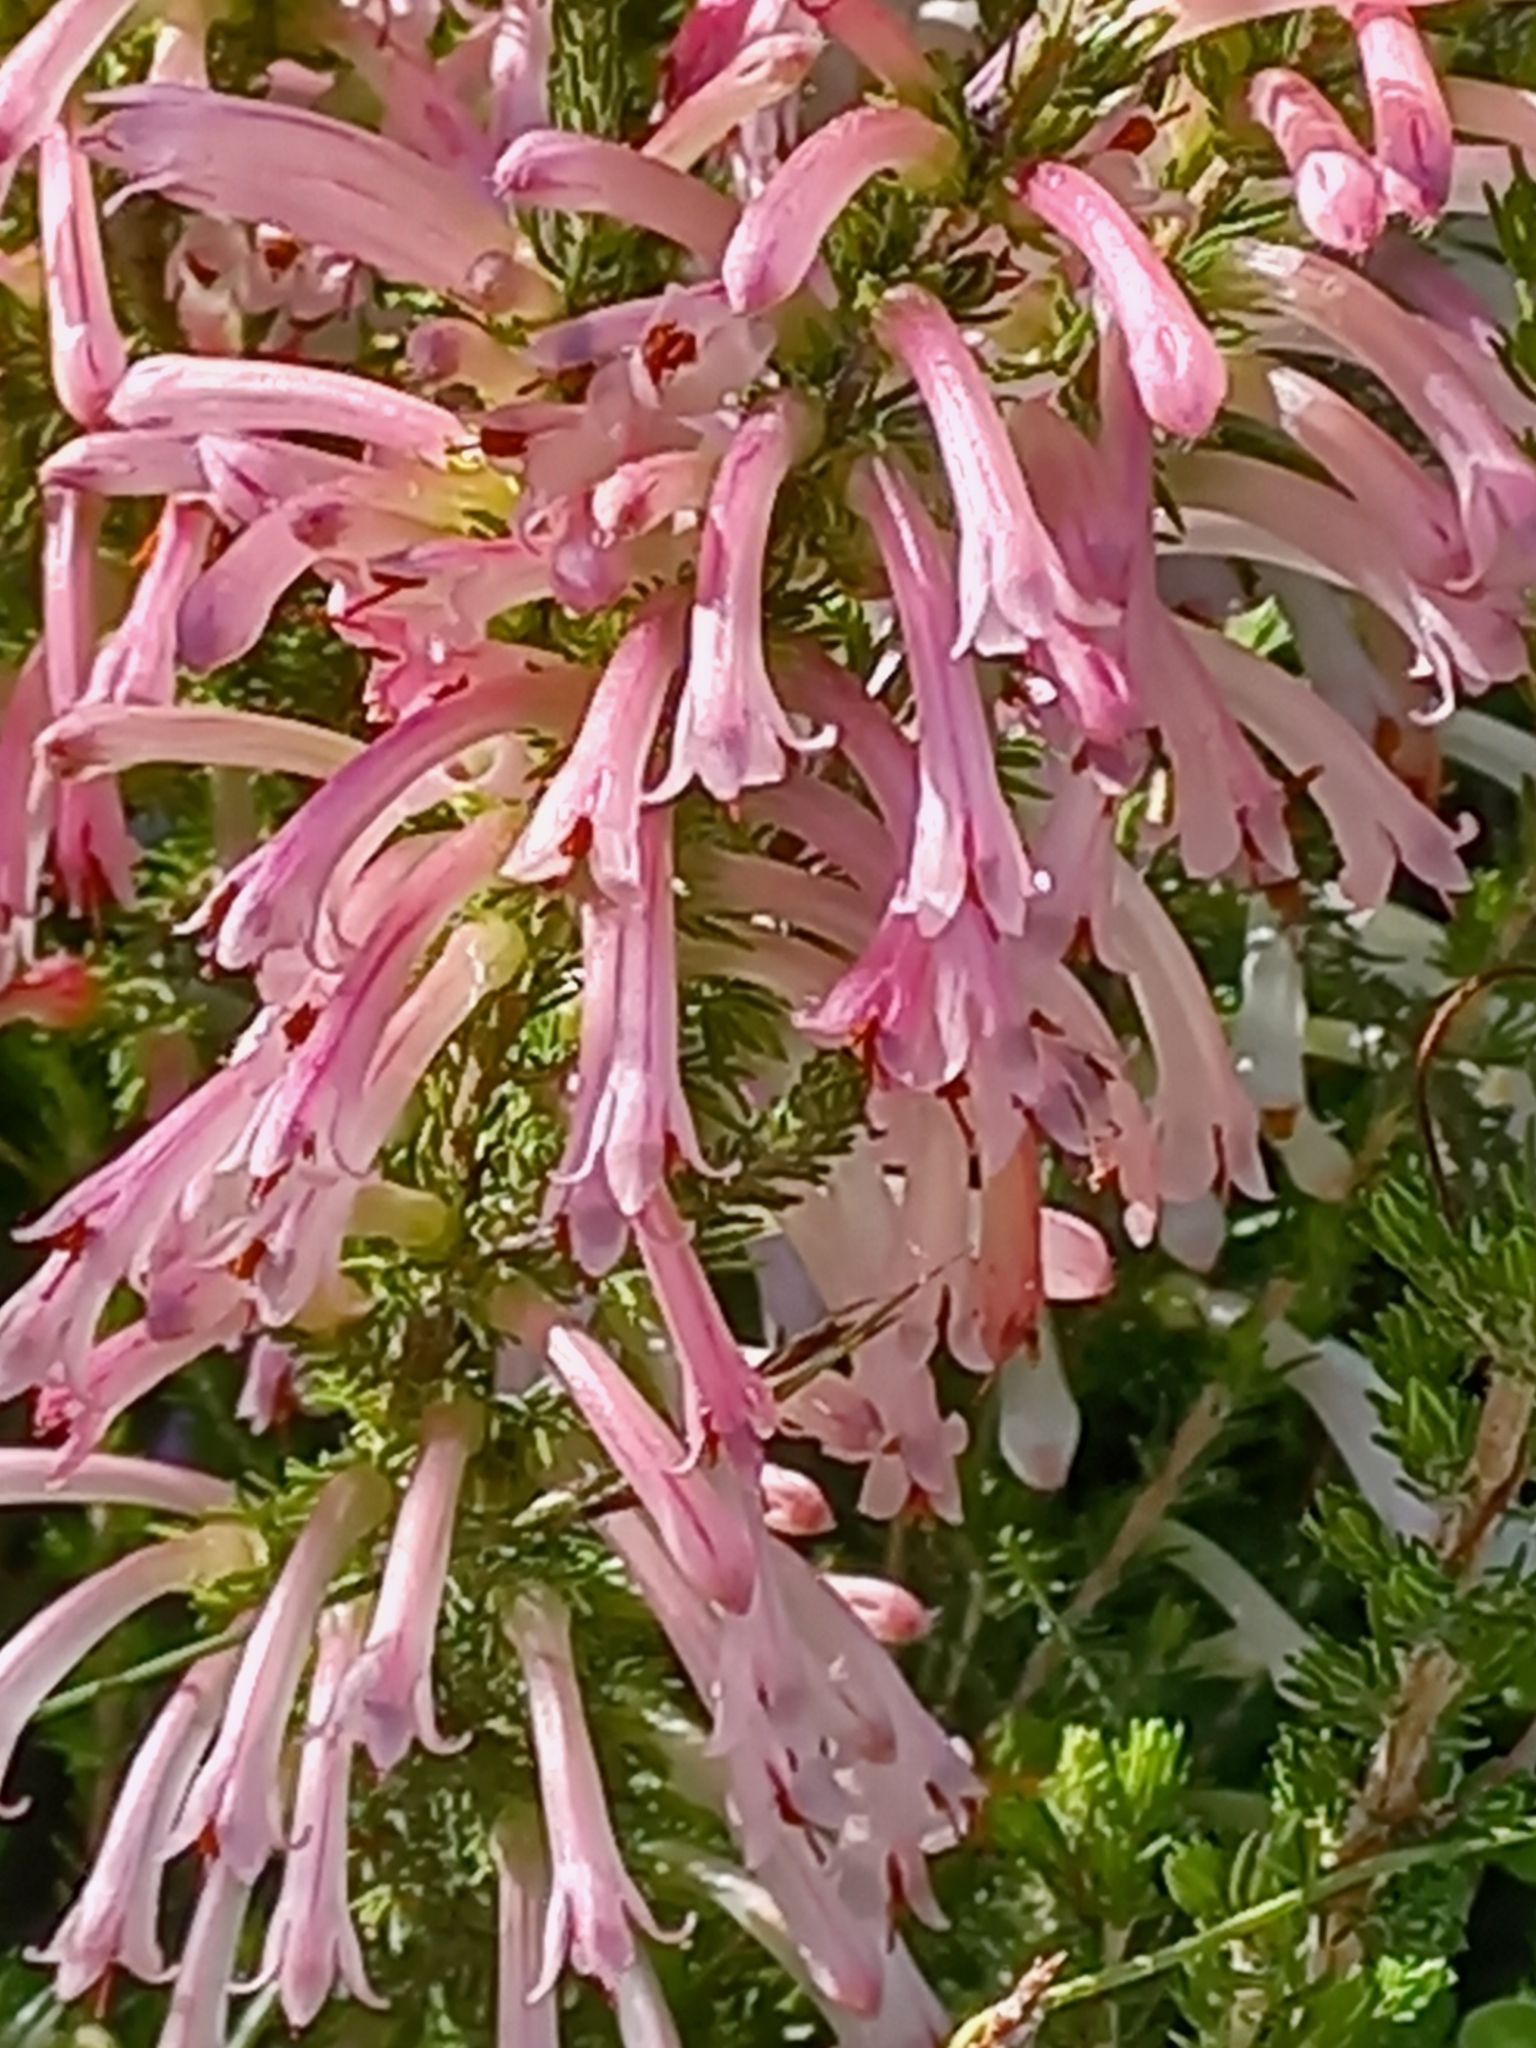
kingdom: Plantae
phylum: Tracheophyta
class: Magnoliopsida
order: Ericales
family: Ericaceae
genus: Erica
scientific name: Erica curviflora
